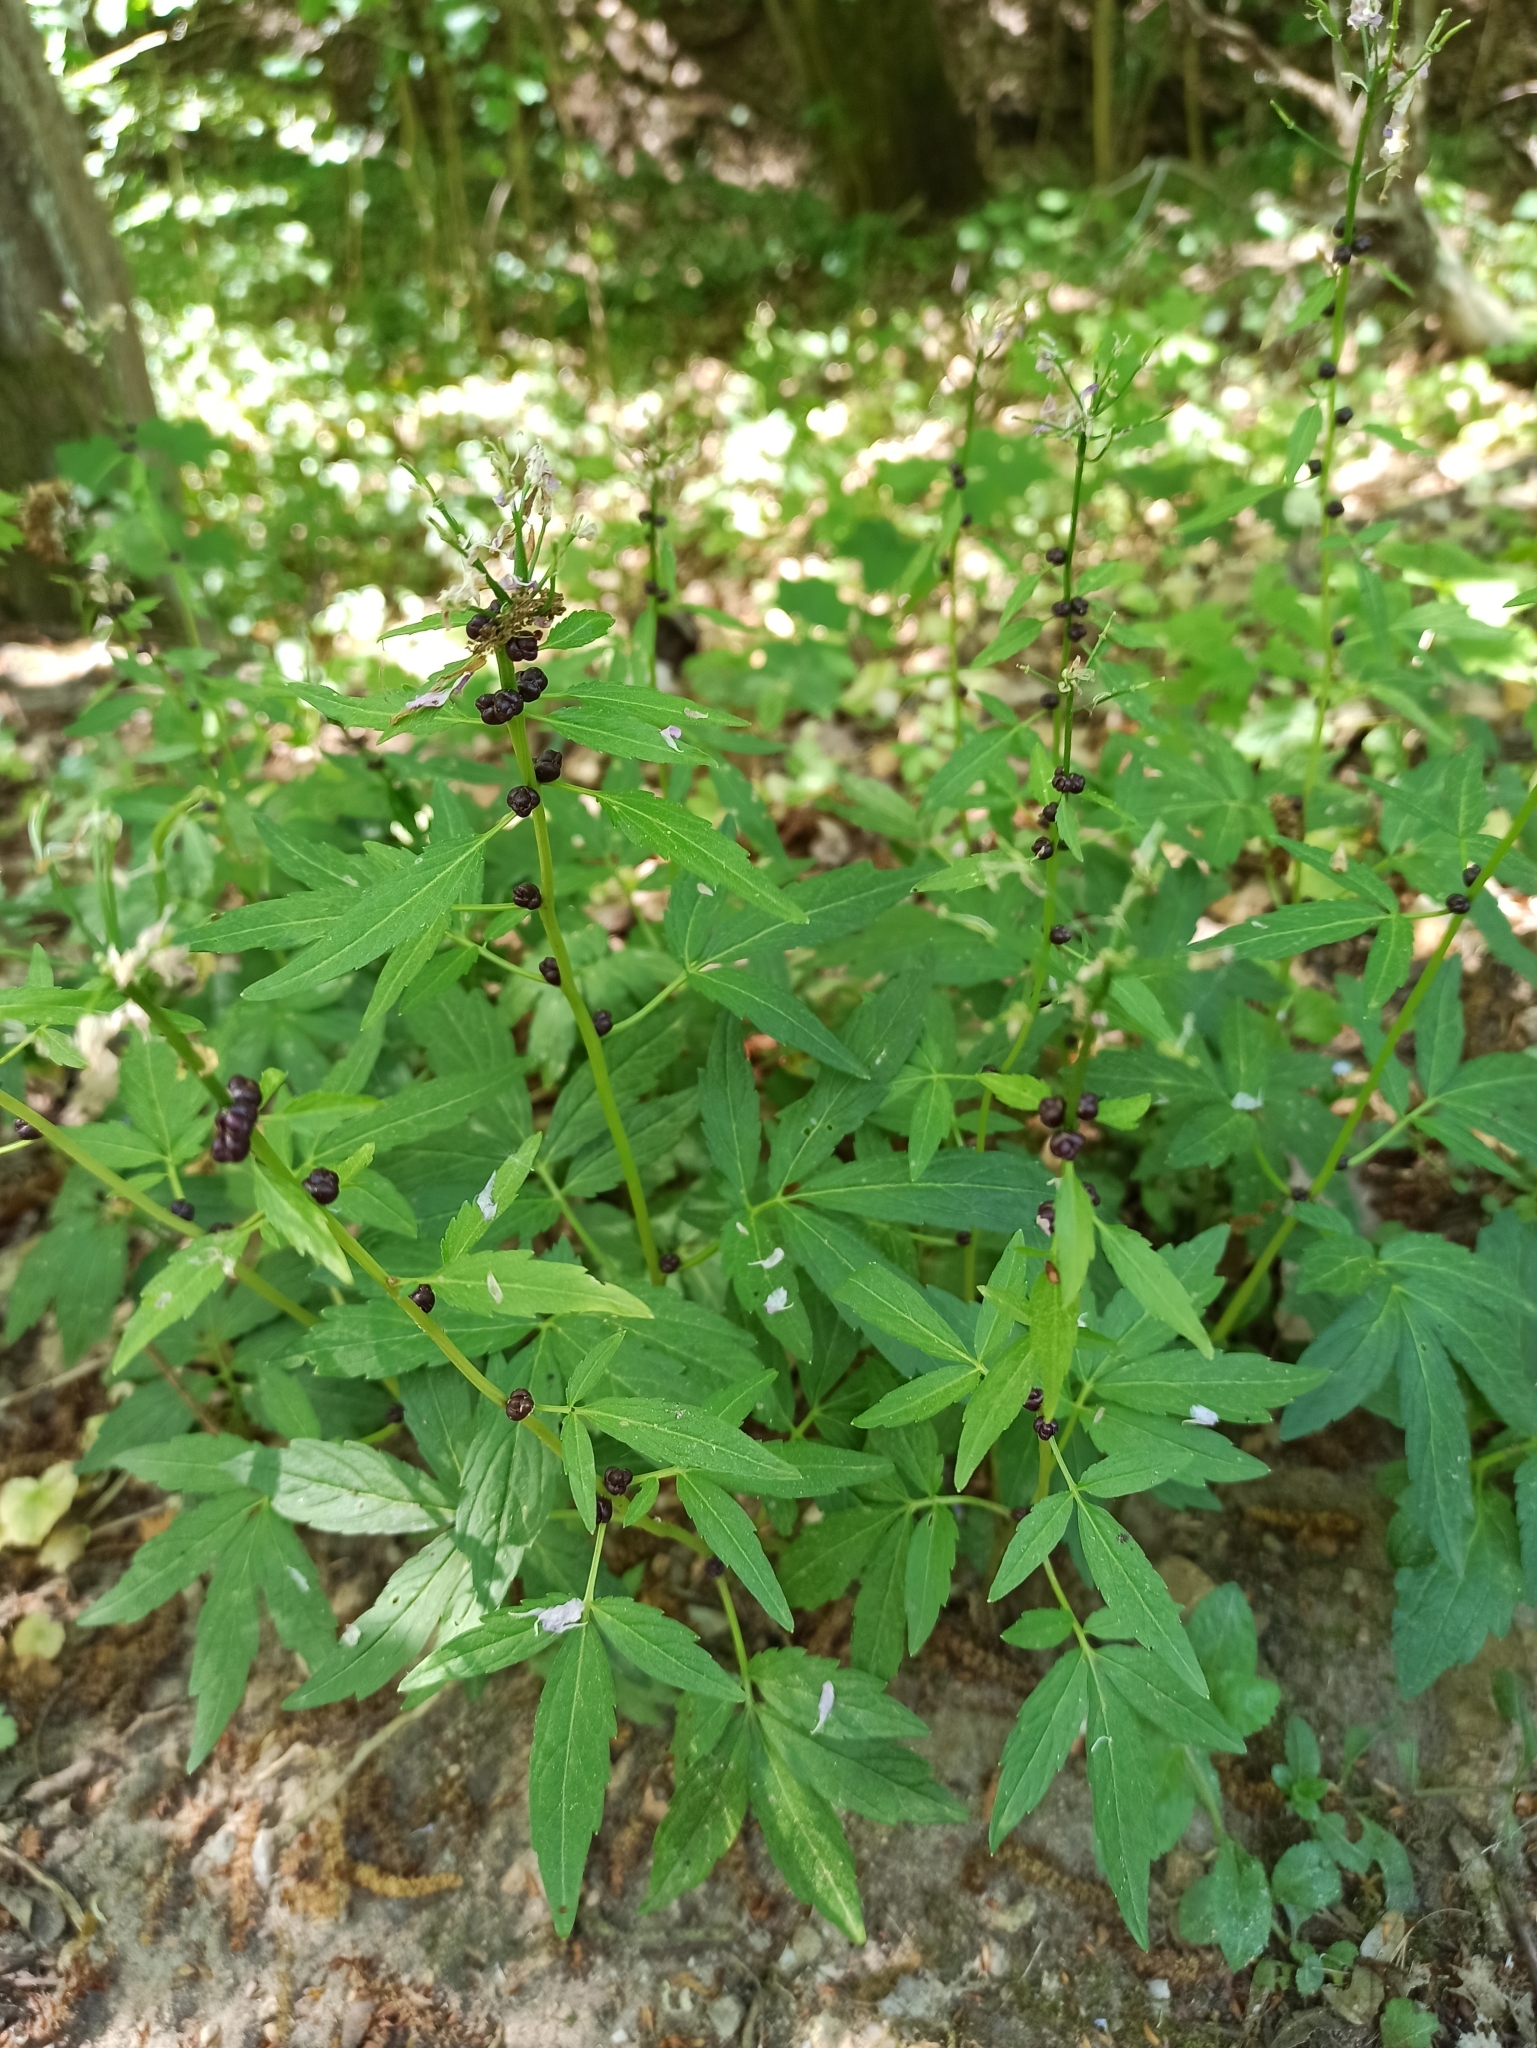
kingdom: Plantae
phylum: Tracheophyta
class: Magnoliopsida
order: Brassicales
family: Brassicaceae
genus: Cardamine
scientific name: Cardamine bulbifera
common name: Coralroot bittercress
